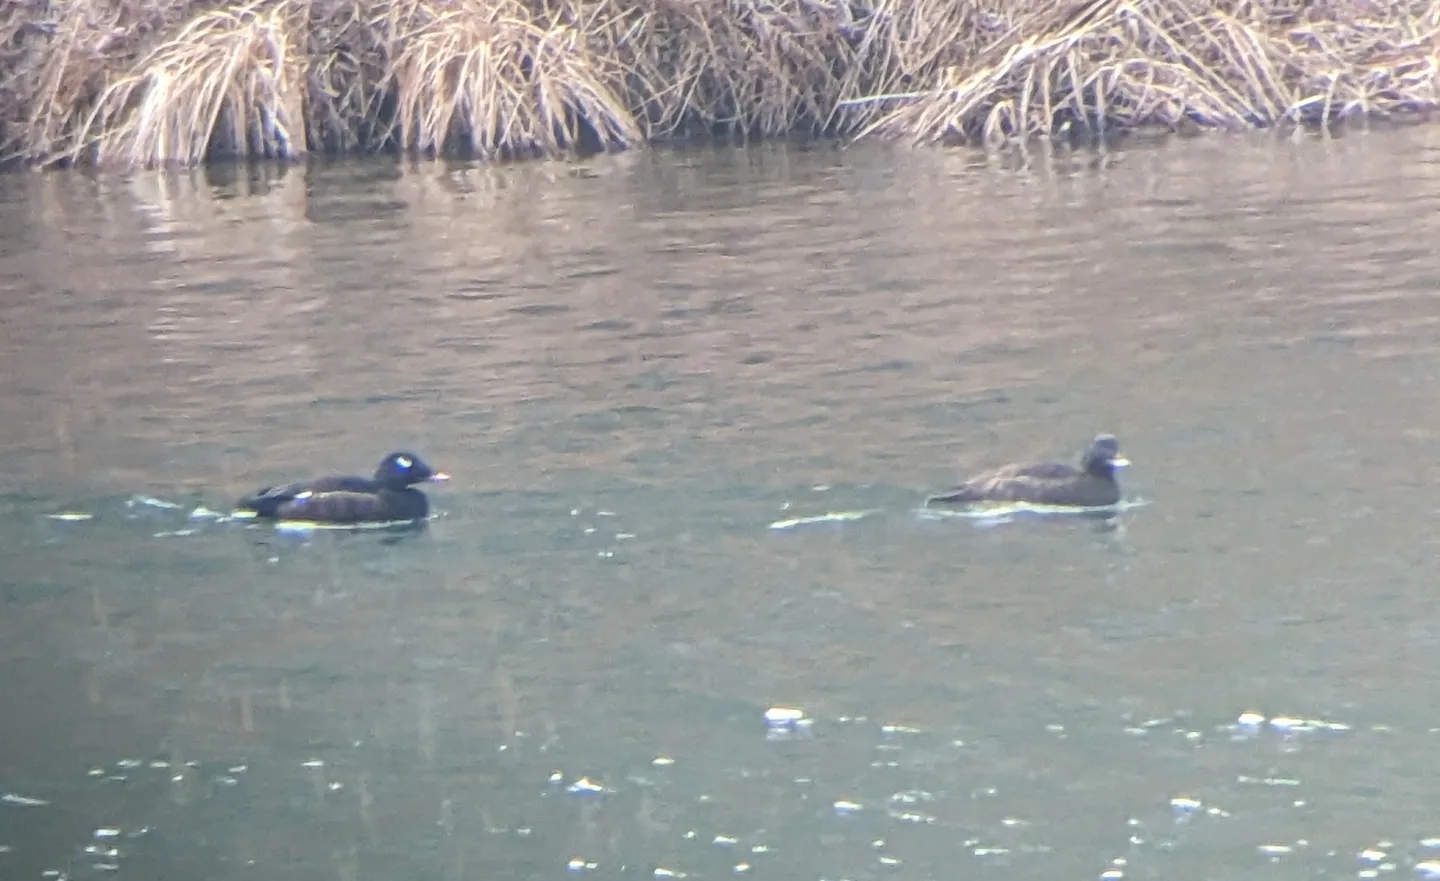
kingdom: Animalia
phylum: Chordata
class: Aves
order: Anseriformes
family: Anatidae
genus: Melanitta
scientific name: Melanitta deglandi
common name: White-winged scoter
